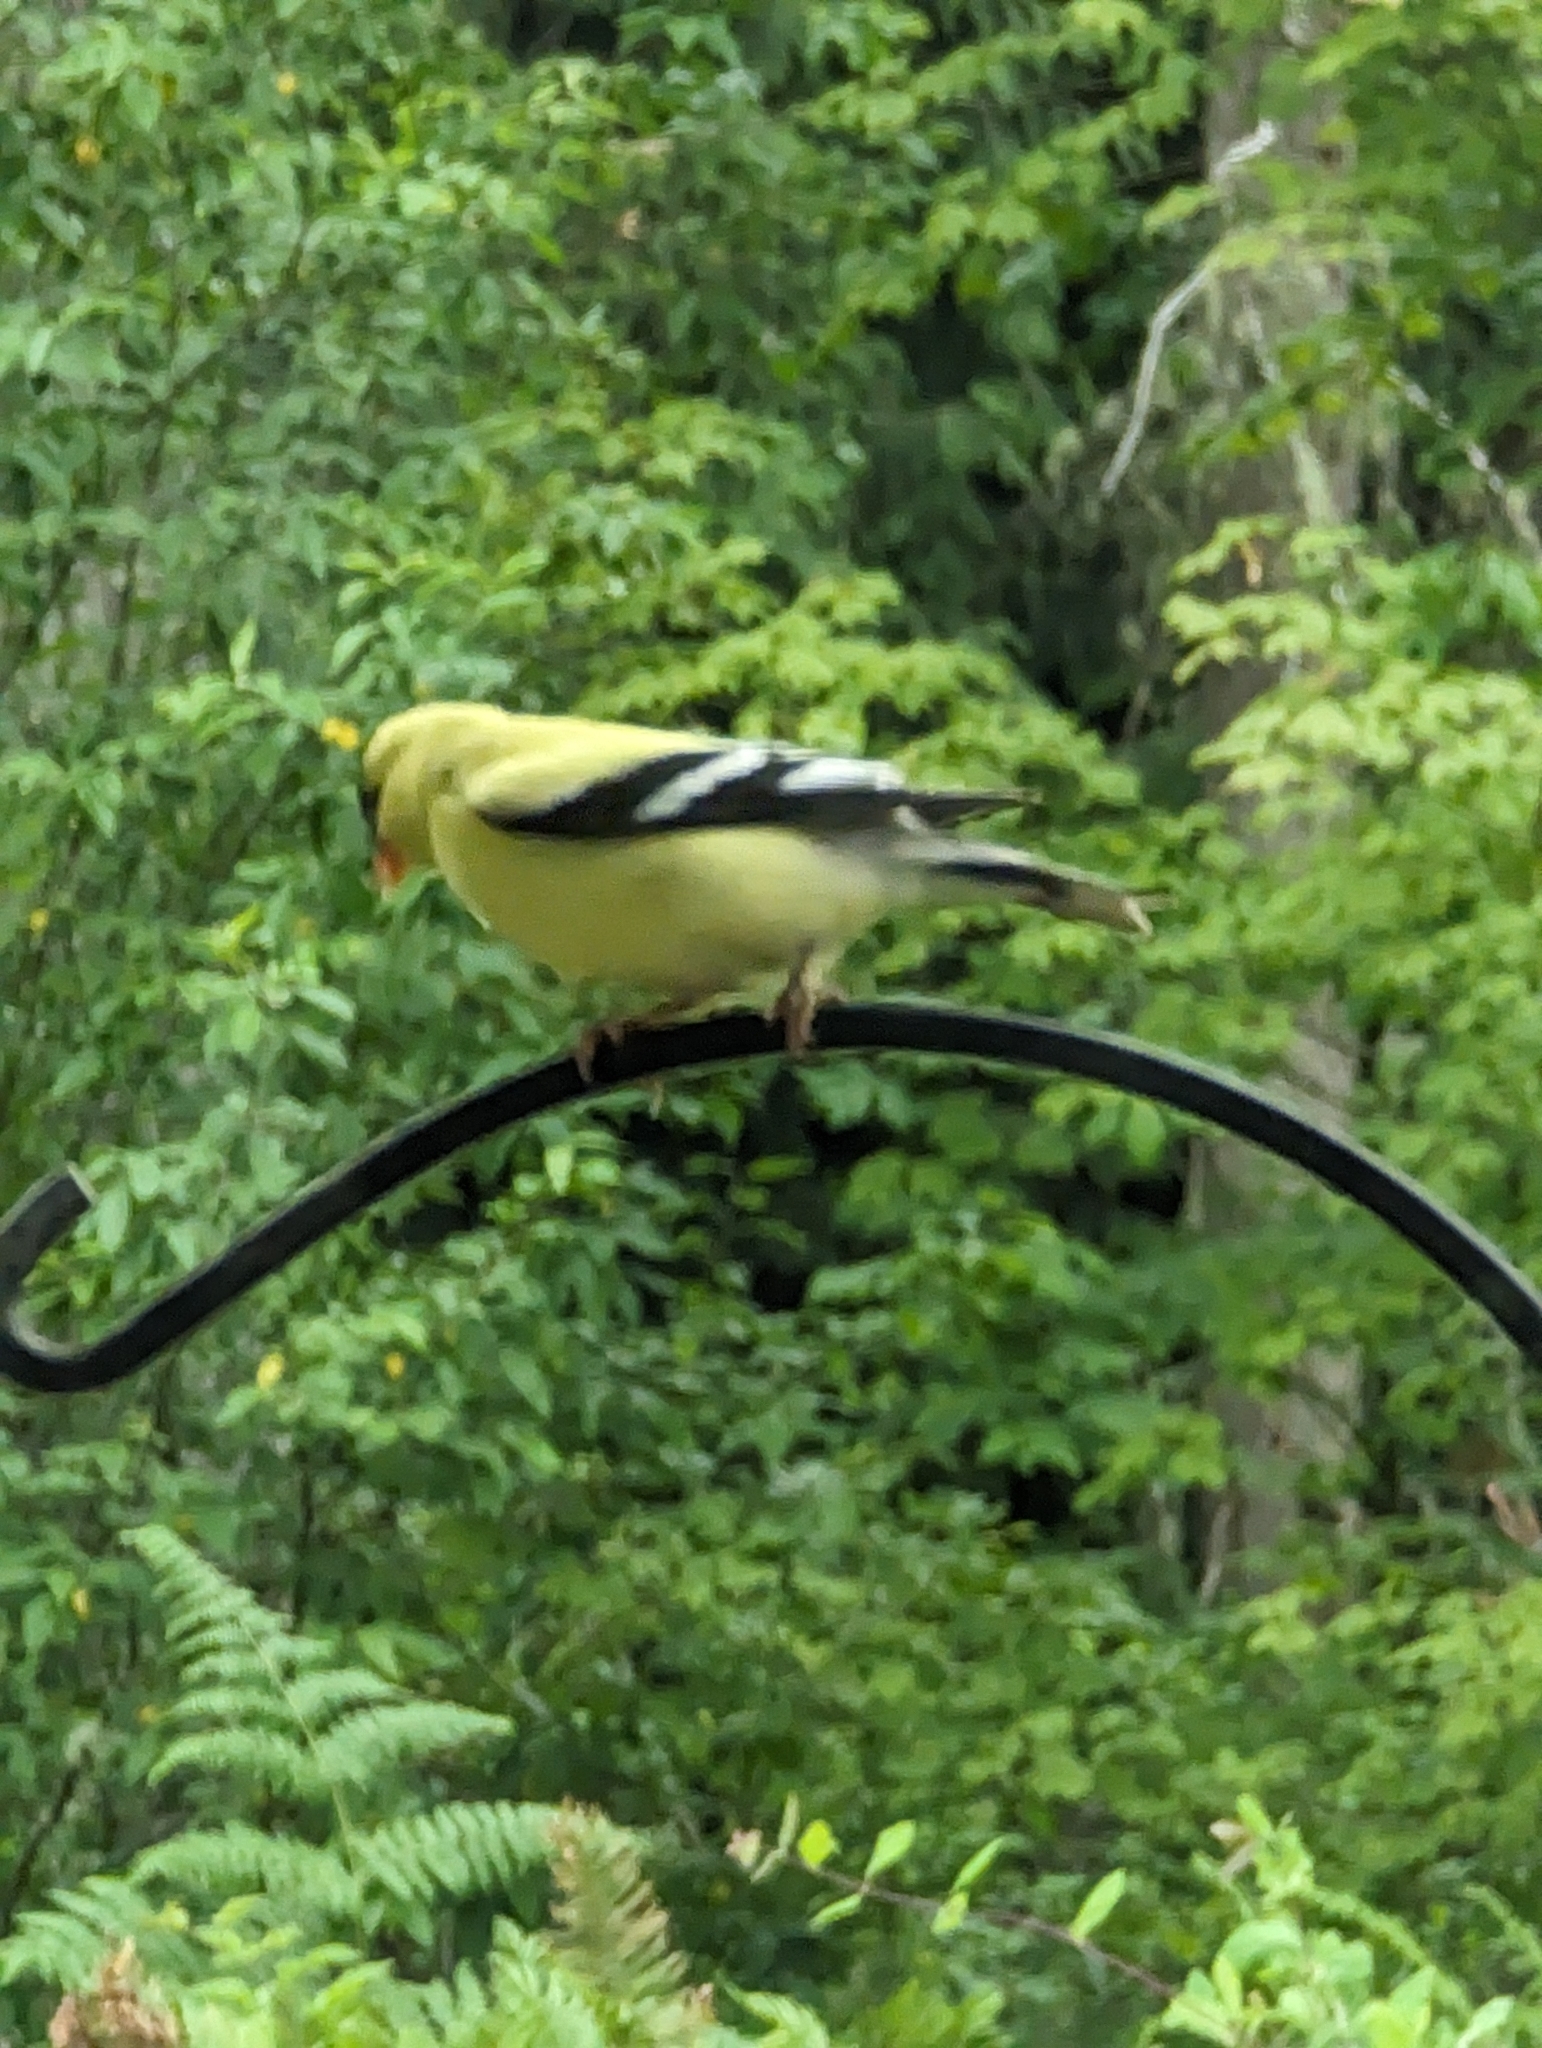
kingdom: Animalia
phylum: Chordata
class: Aves
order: Passeriformes
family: Fringillidae
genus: Spinus
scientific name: Spinus tristis
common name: American goldfinch
